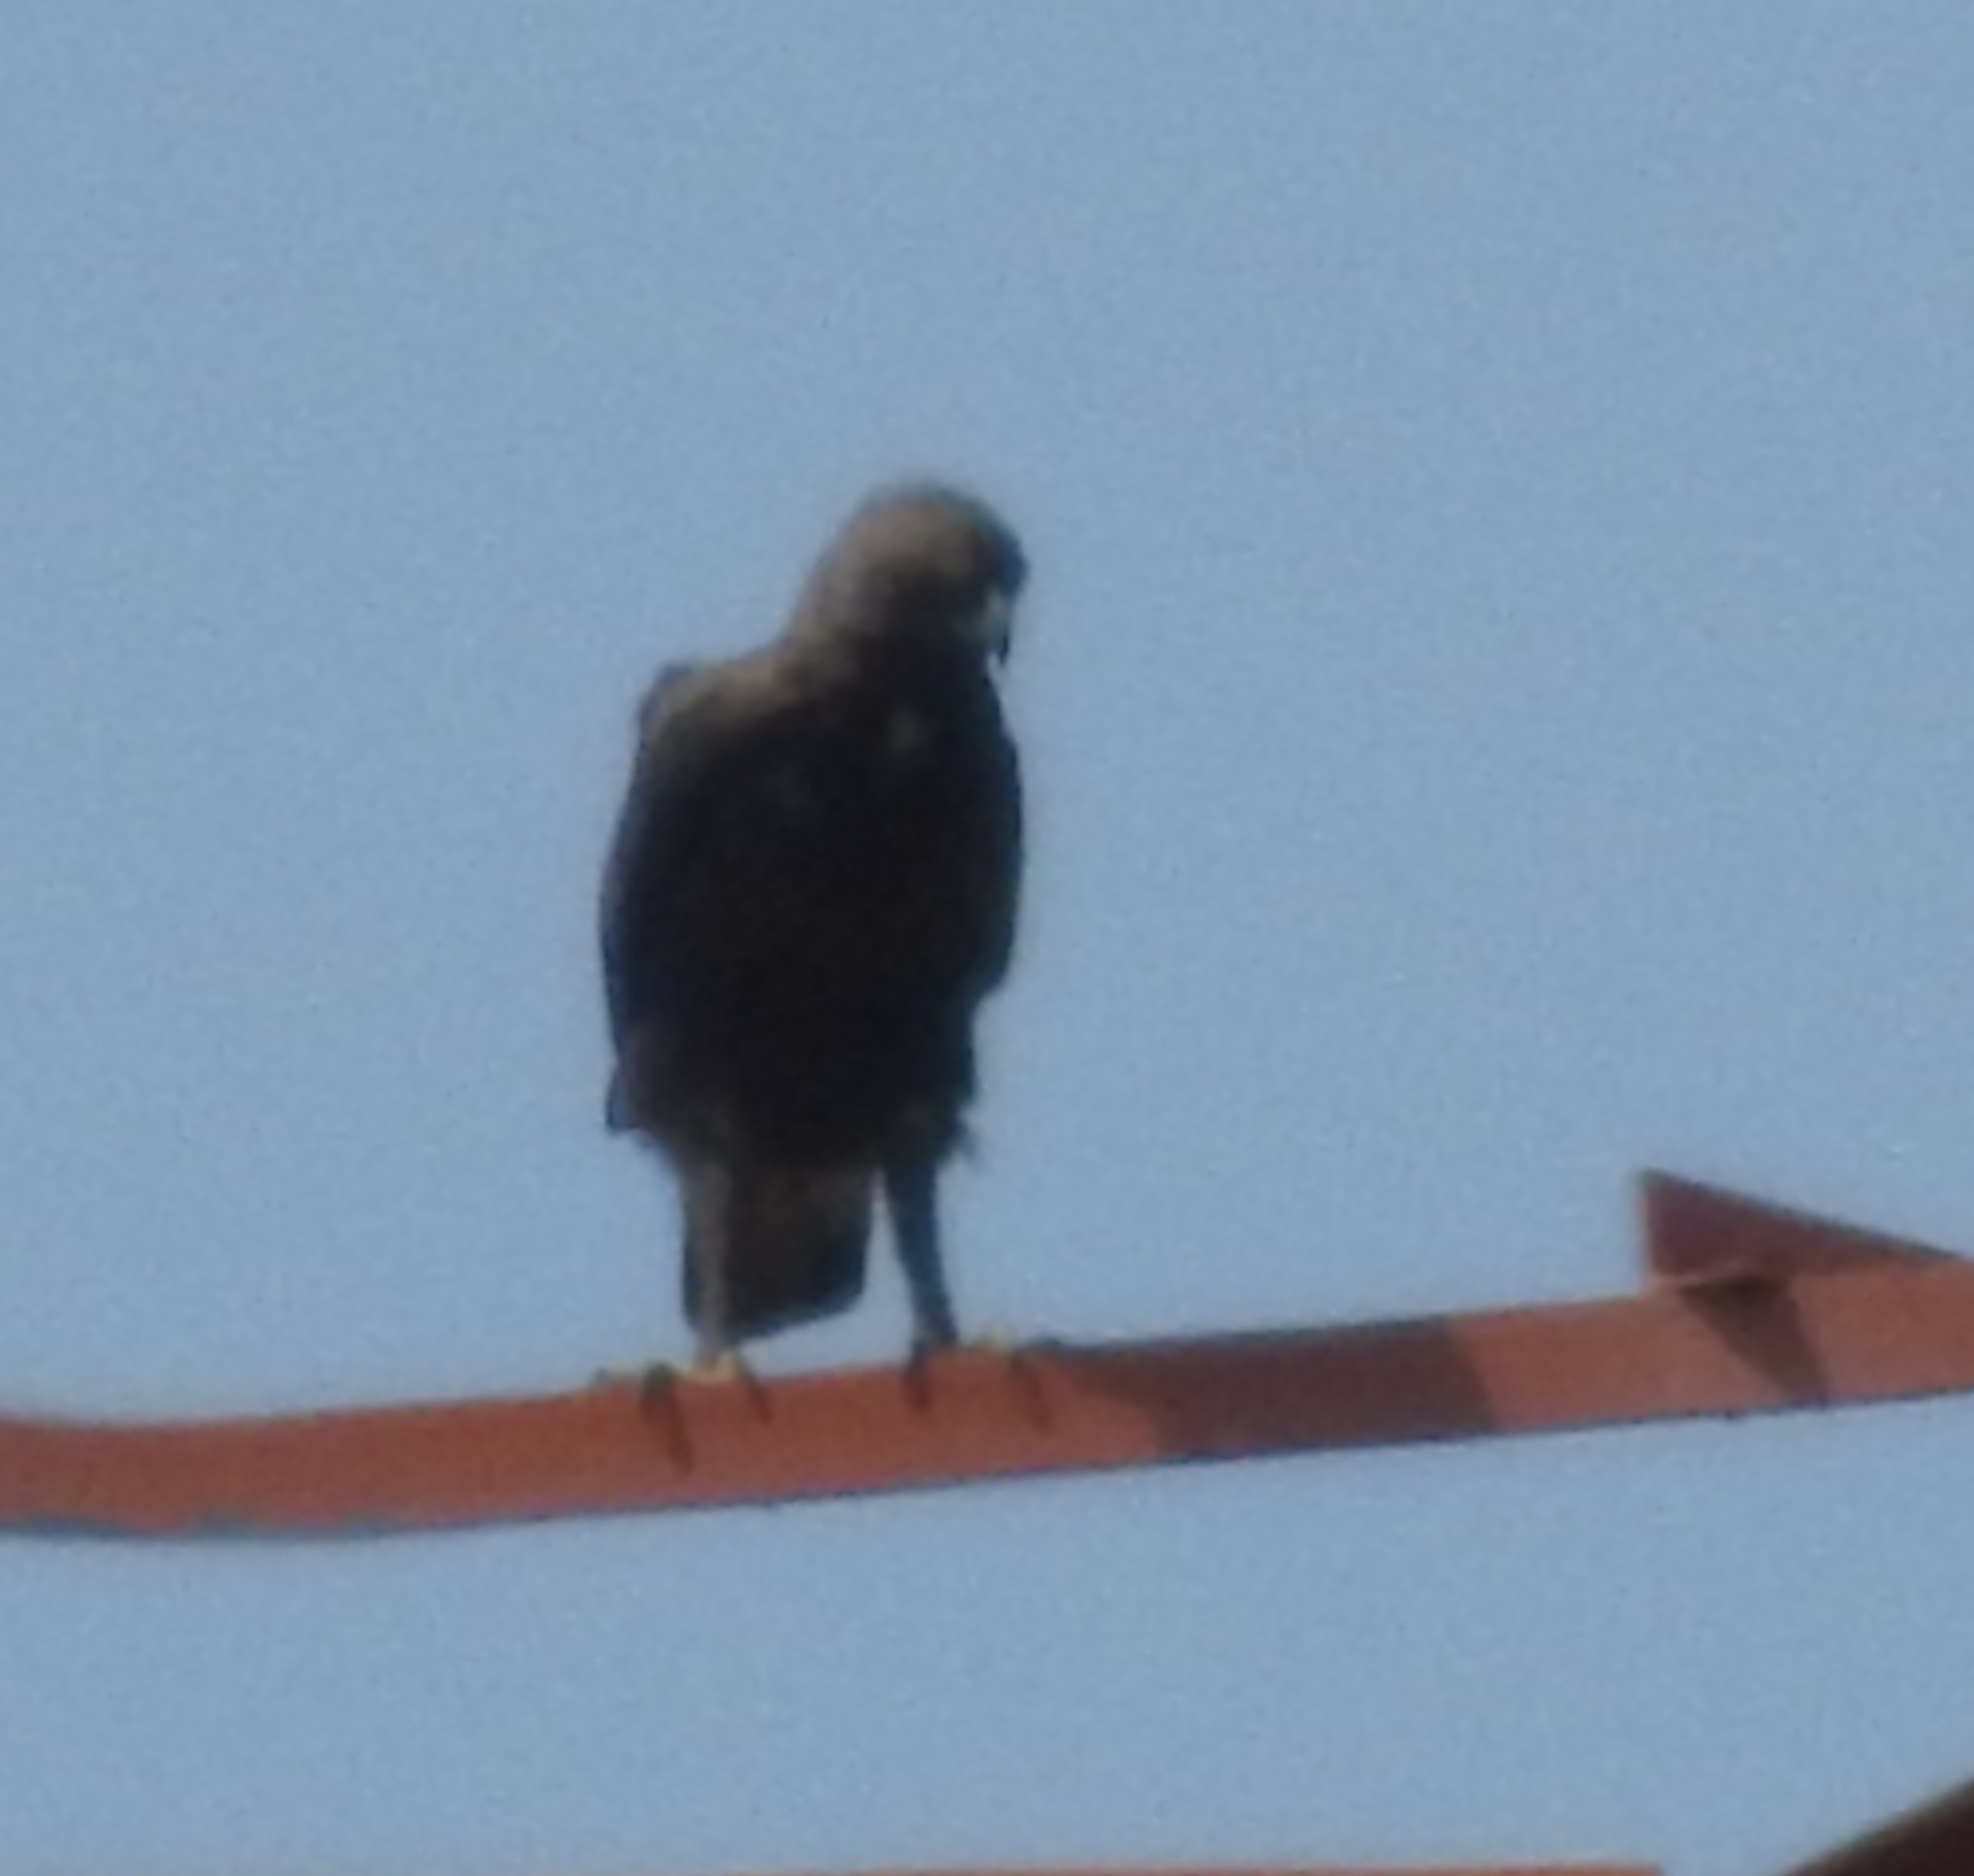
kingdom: Animalia
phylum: Chordata
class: Aves
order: Accipitriformes
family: Accipitridae
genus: Nisaetus
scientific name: Nisaetus cirrhatus
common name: Changeable hawk-eagle
